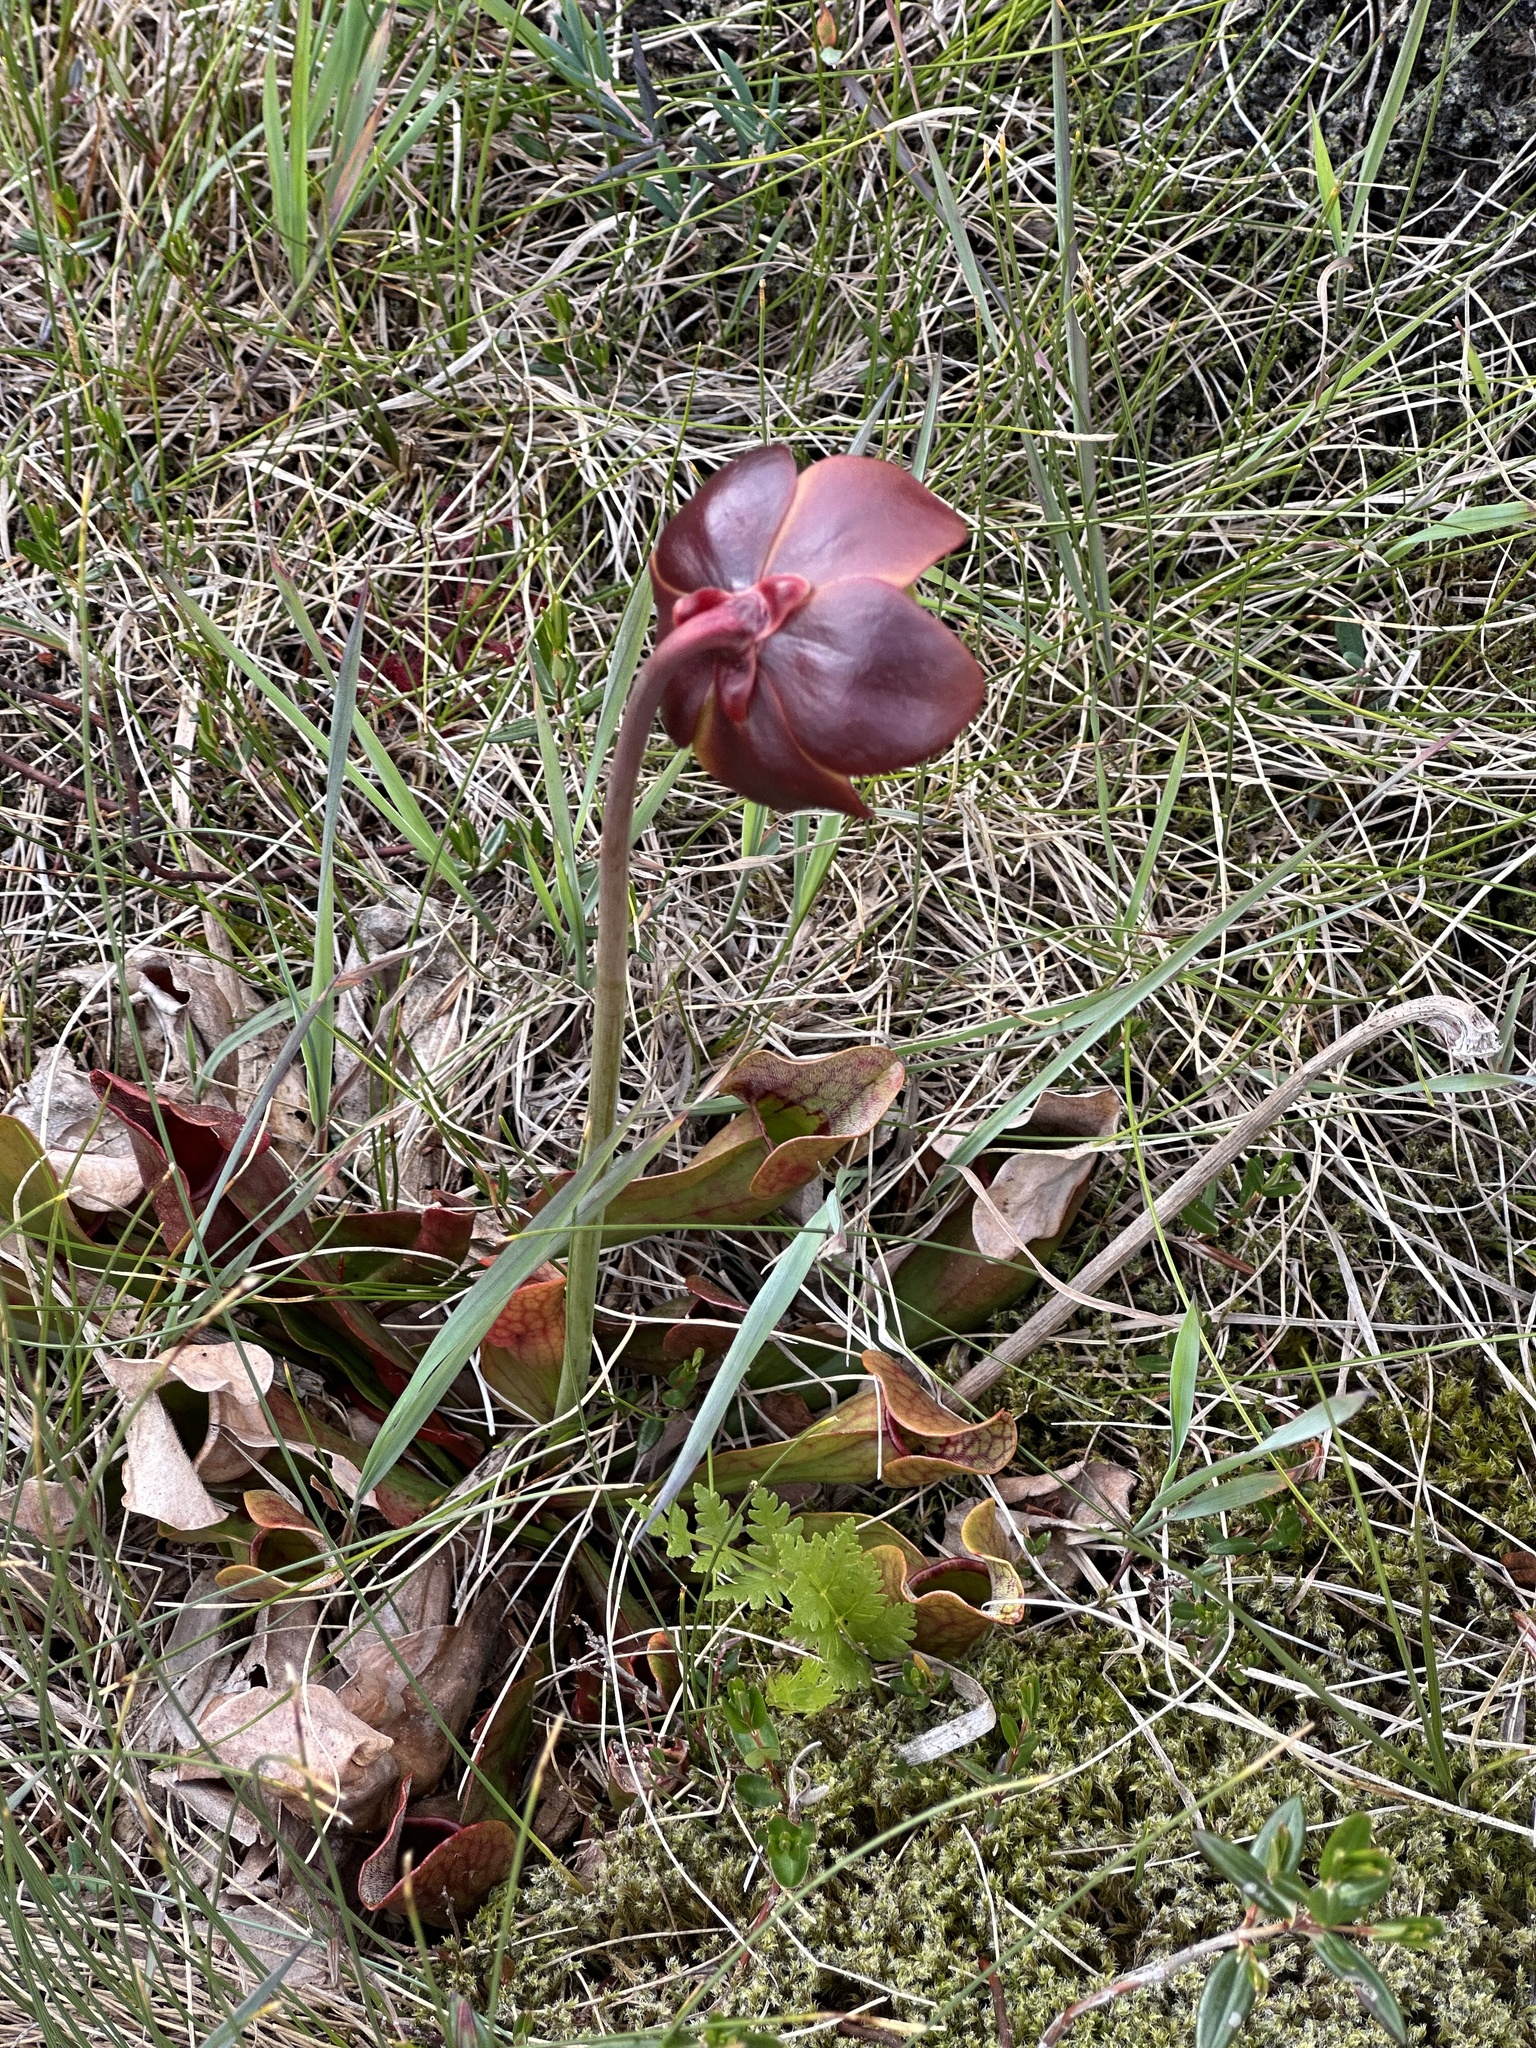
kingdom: Plantae
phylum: Tracheophyta
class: Magnoliopsida
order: Ericales
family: Sarraceniaceae
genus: Sarracenia
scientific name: Sarracenia purpurea
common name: Pitcherplant
